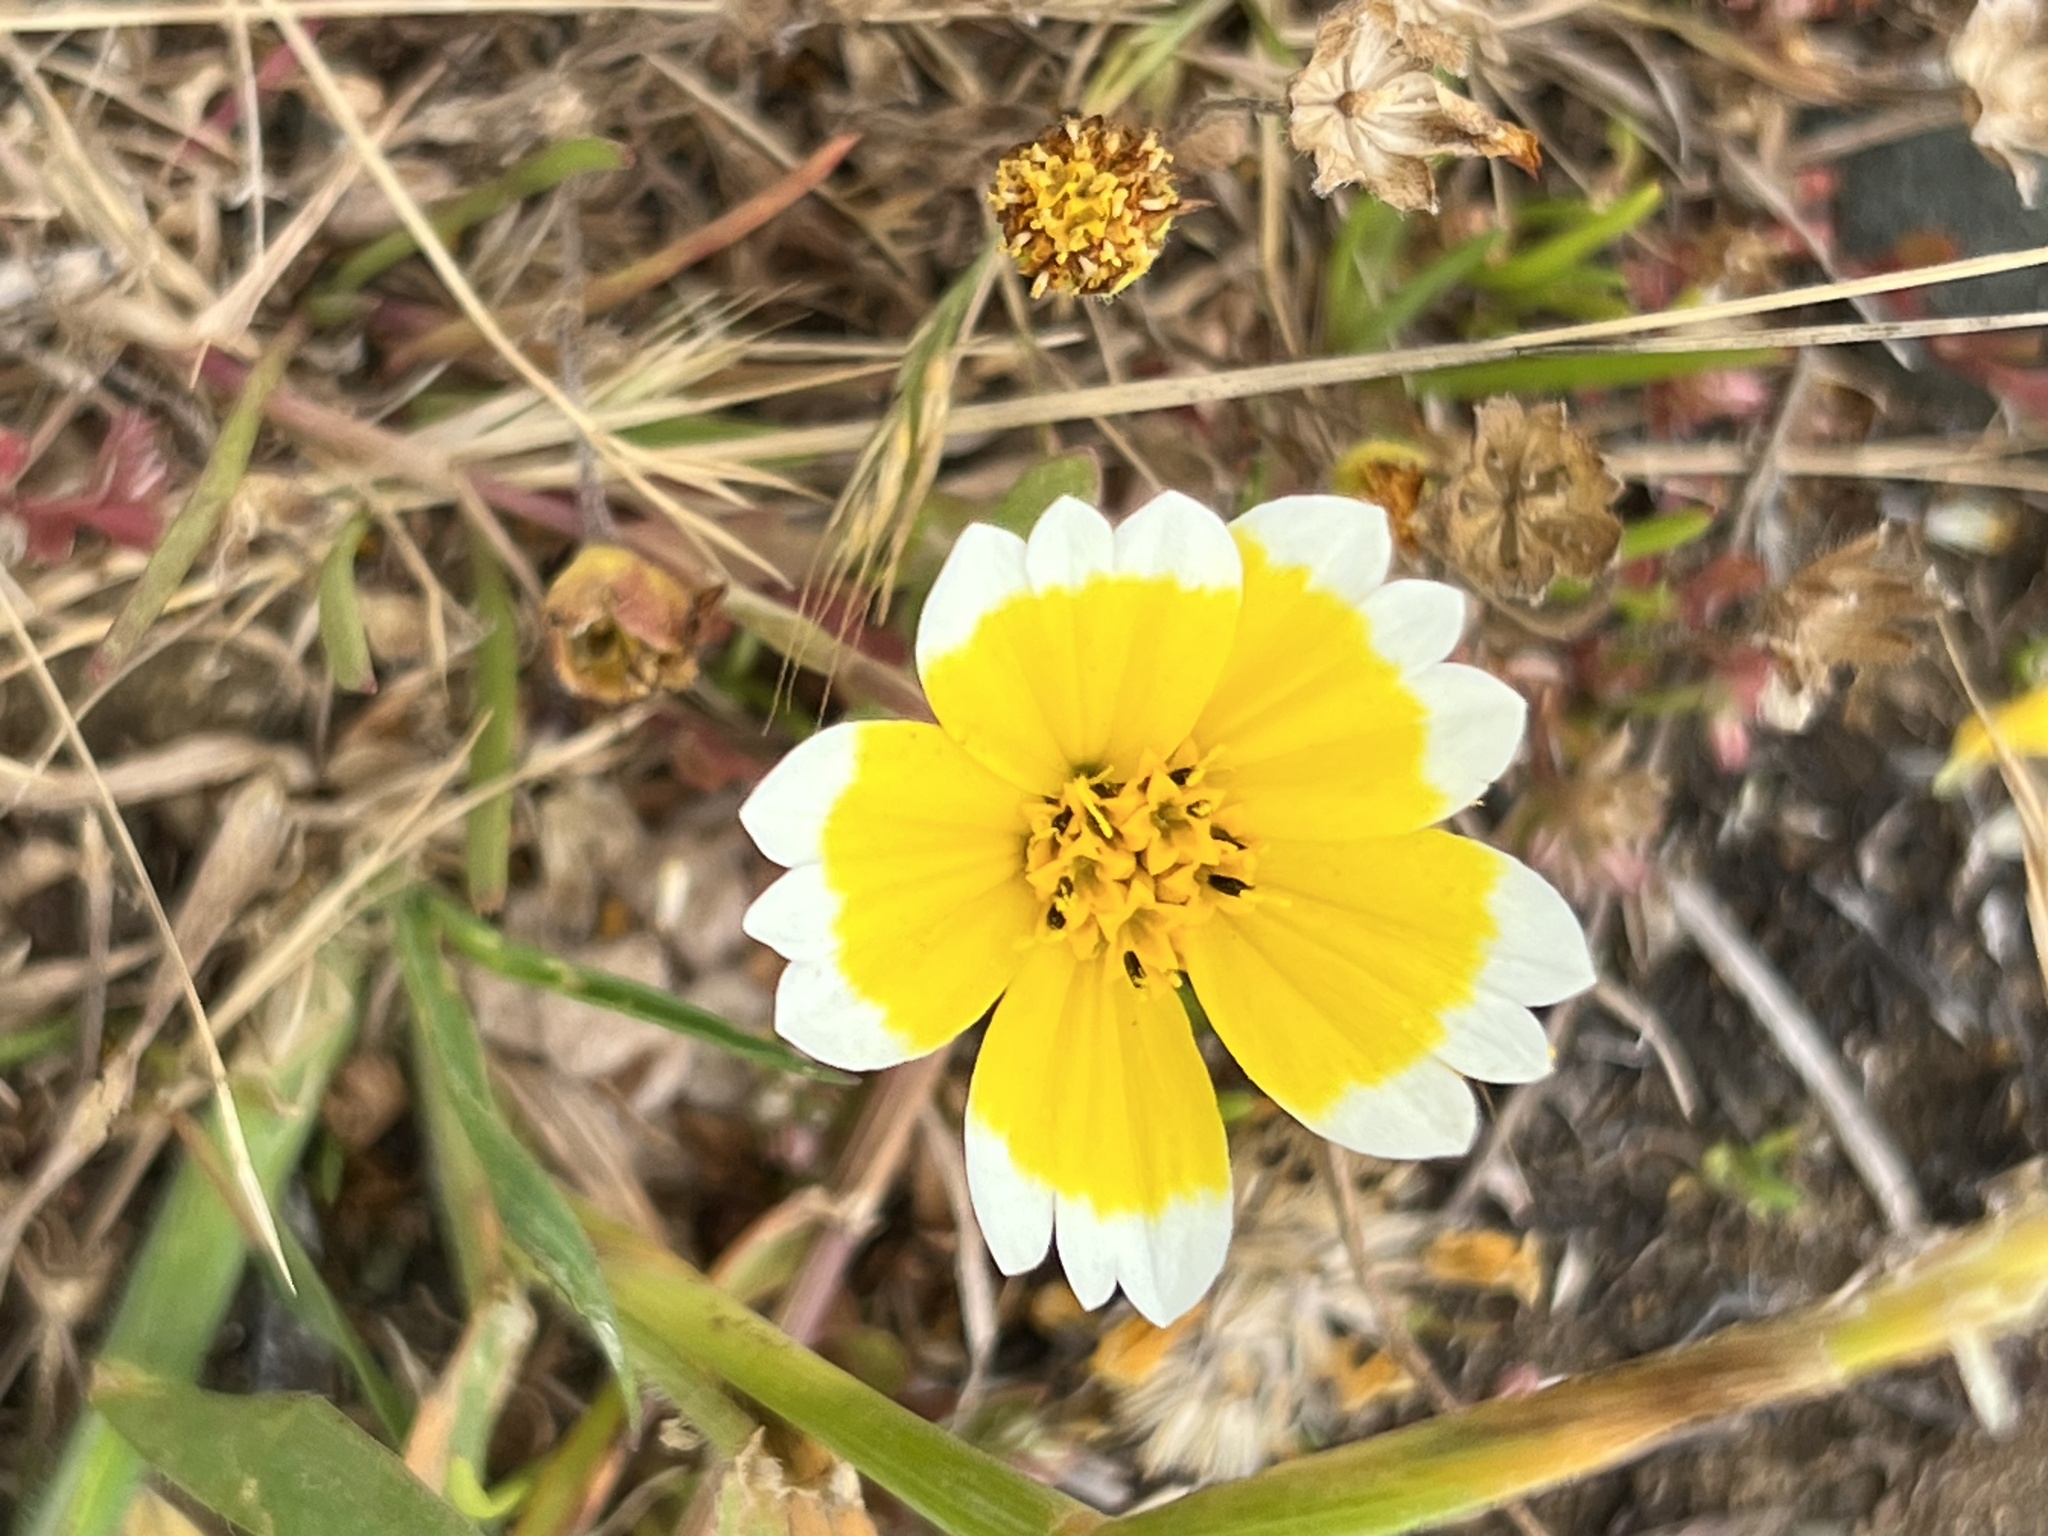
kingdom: Plantae
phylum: Tracheophyta
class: Magnoliopsida
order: Asterales
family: Asteraceae
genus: Layia
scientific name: Layia platyglossa
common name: Tidy-tips
